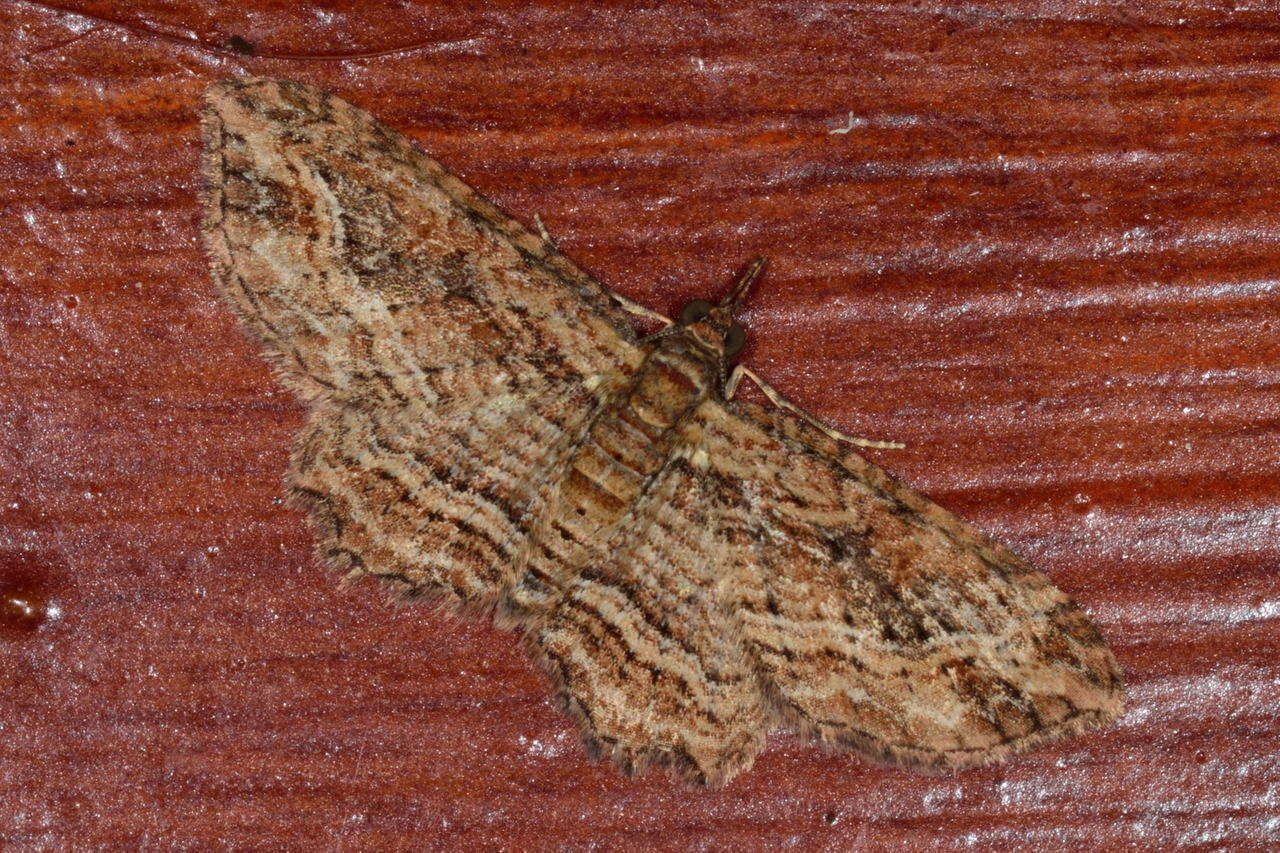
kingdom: Animalia
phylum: Arthropoda
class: Insecta
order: Lepidoptera
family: Geometridae
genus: Chloroclystis
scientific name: Chloroclystis filata
